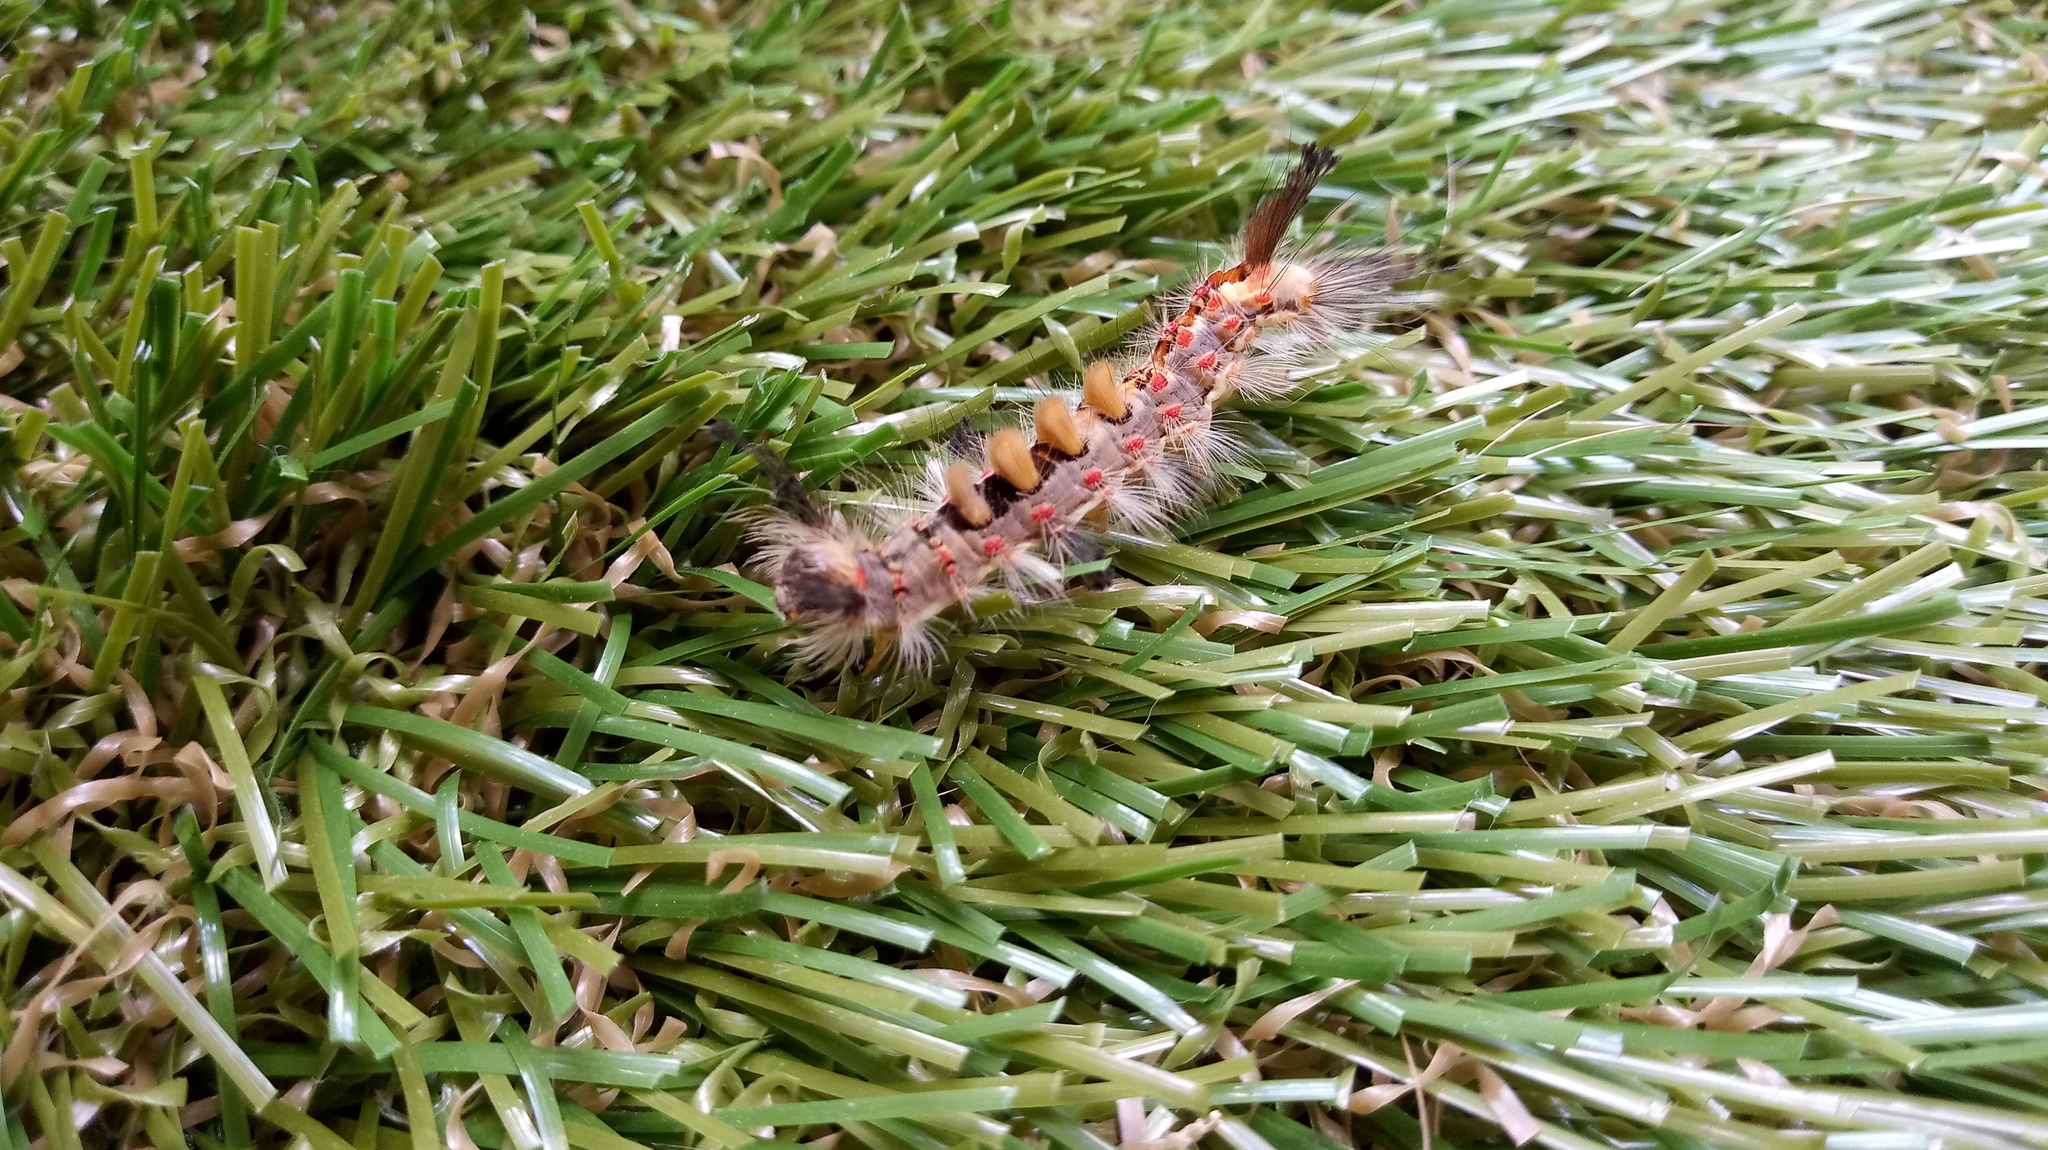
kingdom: Animalia
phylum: Arthropoda
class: Insecta
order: Lepidoptera
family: Erebidae
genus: Orgyia
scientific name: Orgyia antiqua
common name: Vapourer
